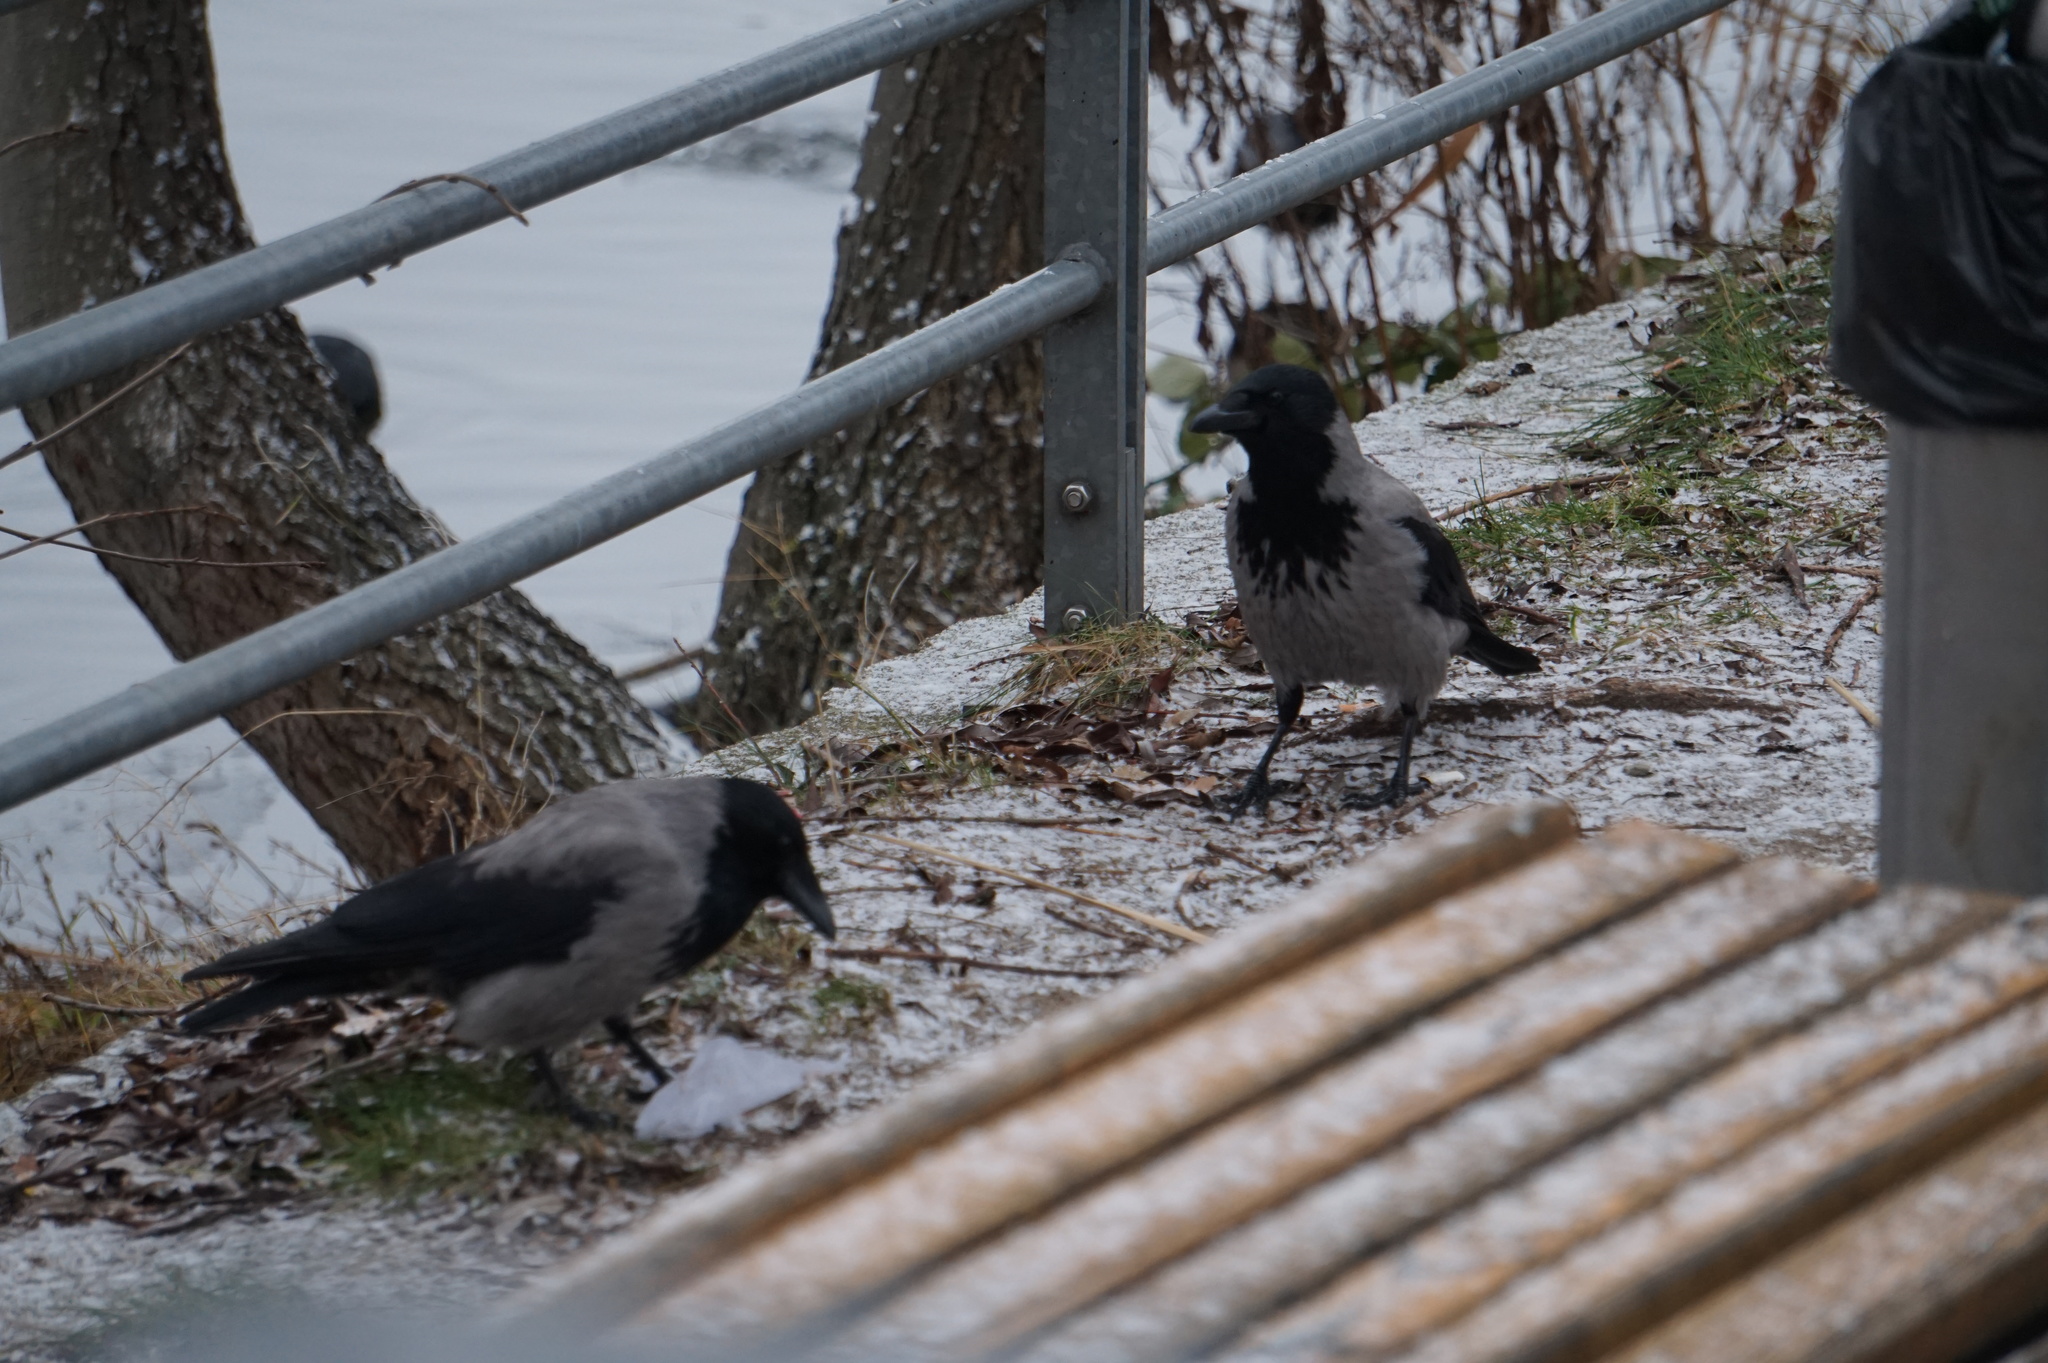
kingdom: Animalia
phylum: Chordata
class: Aves
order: Passeriformes
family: Corvidae
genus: Corvus
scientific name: Corvus cornix
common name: Hooded crow
